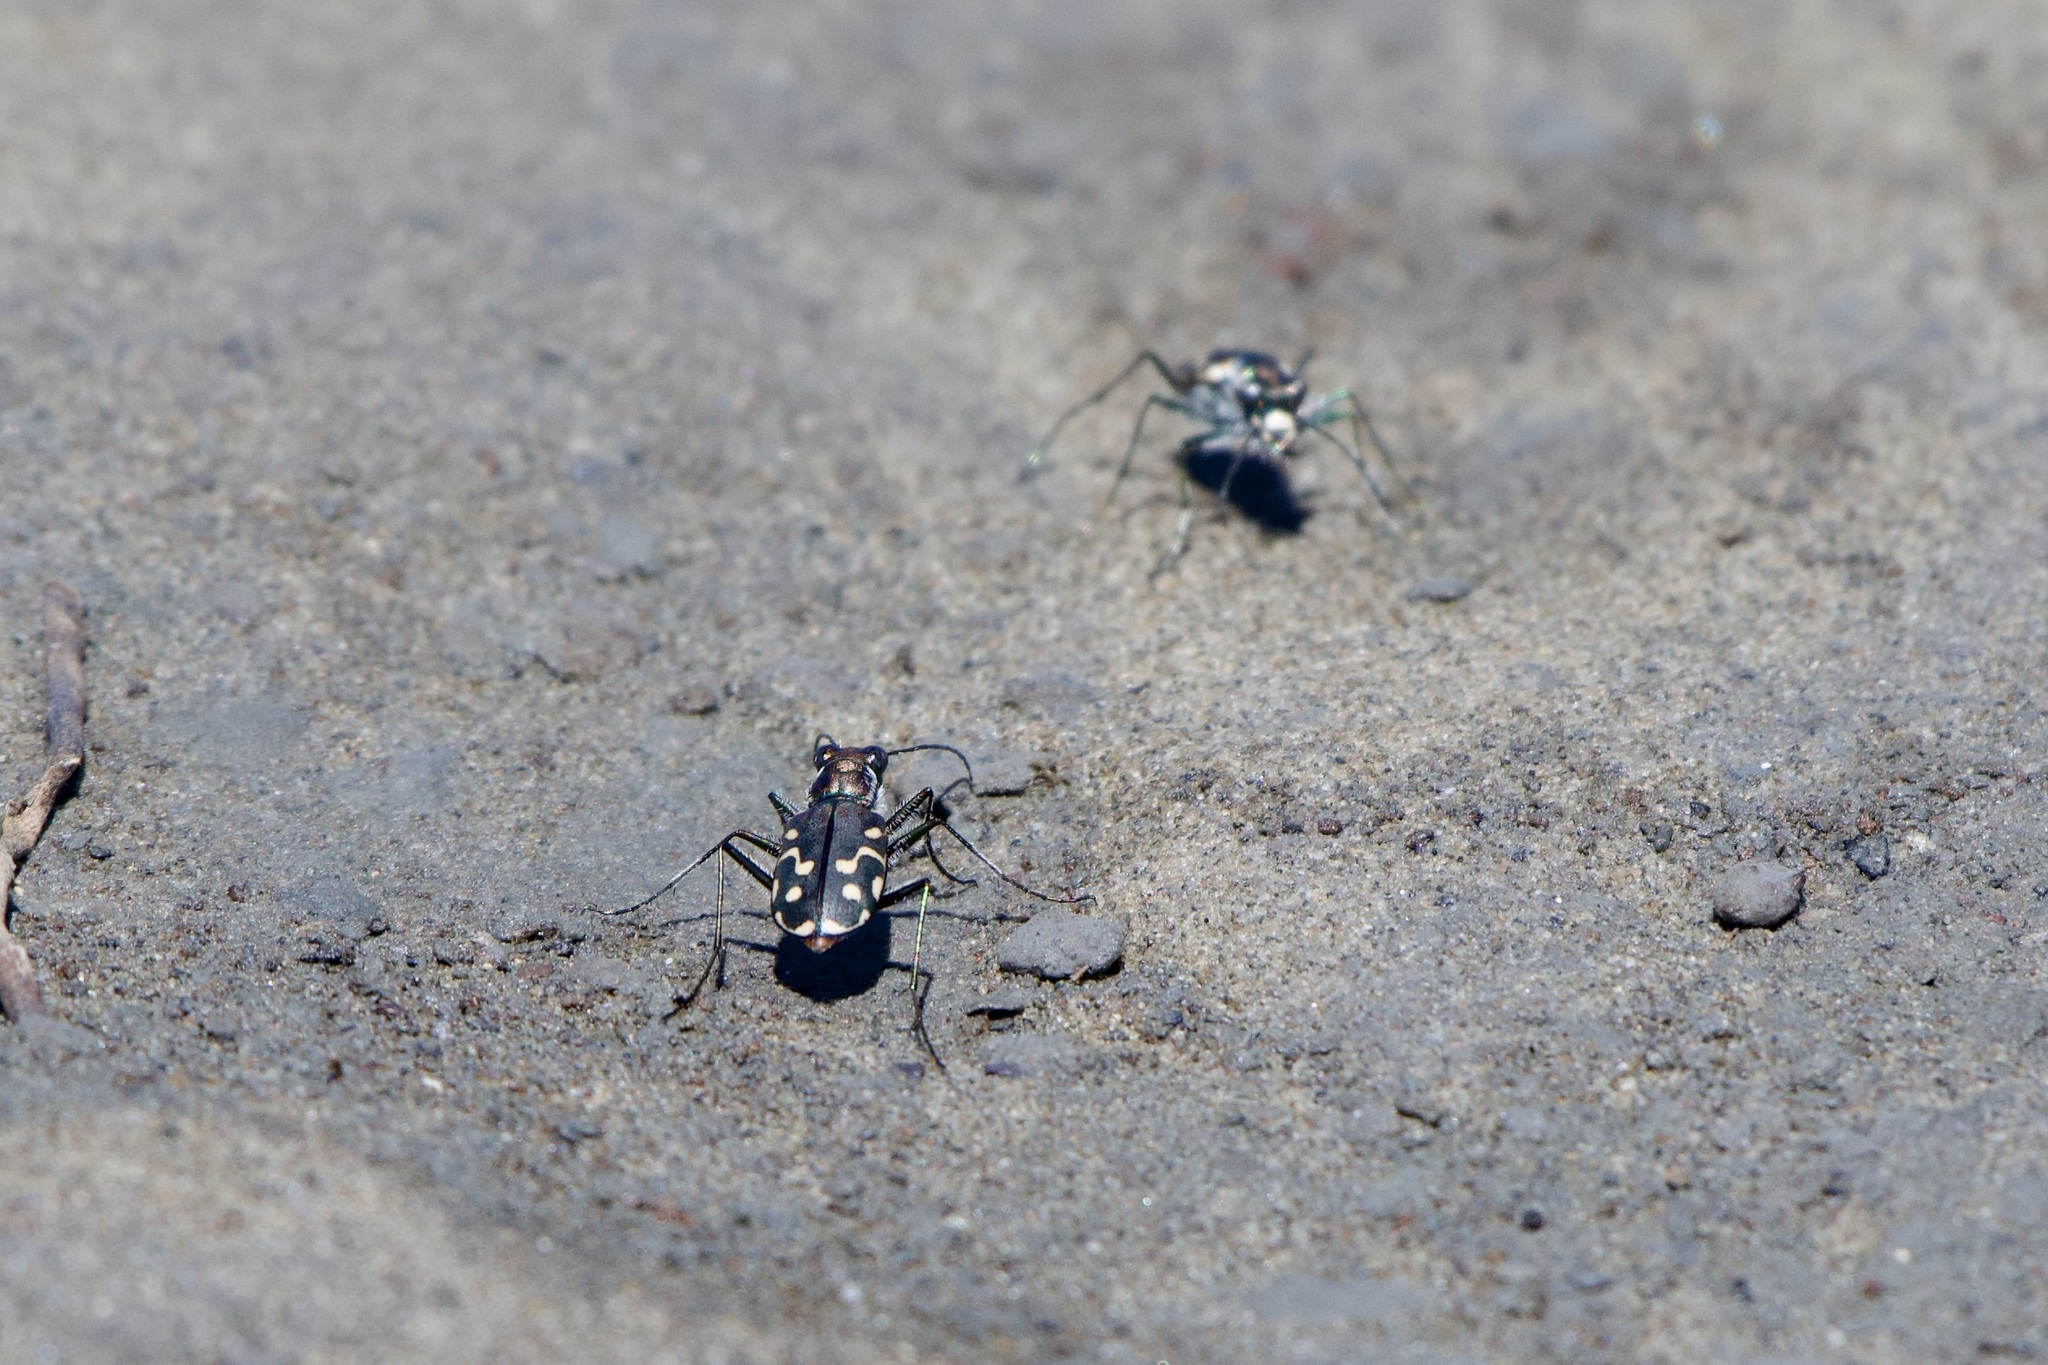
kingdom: Animalia
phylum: Arthropoda
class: Insecta
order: Coleoptera
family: Carabidae
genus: Cicindela
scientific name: Cicindela hemorrhagica
